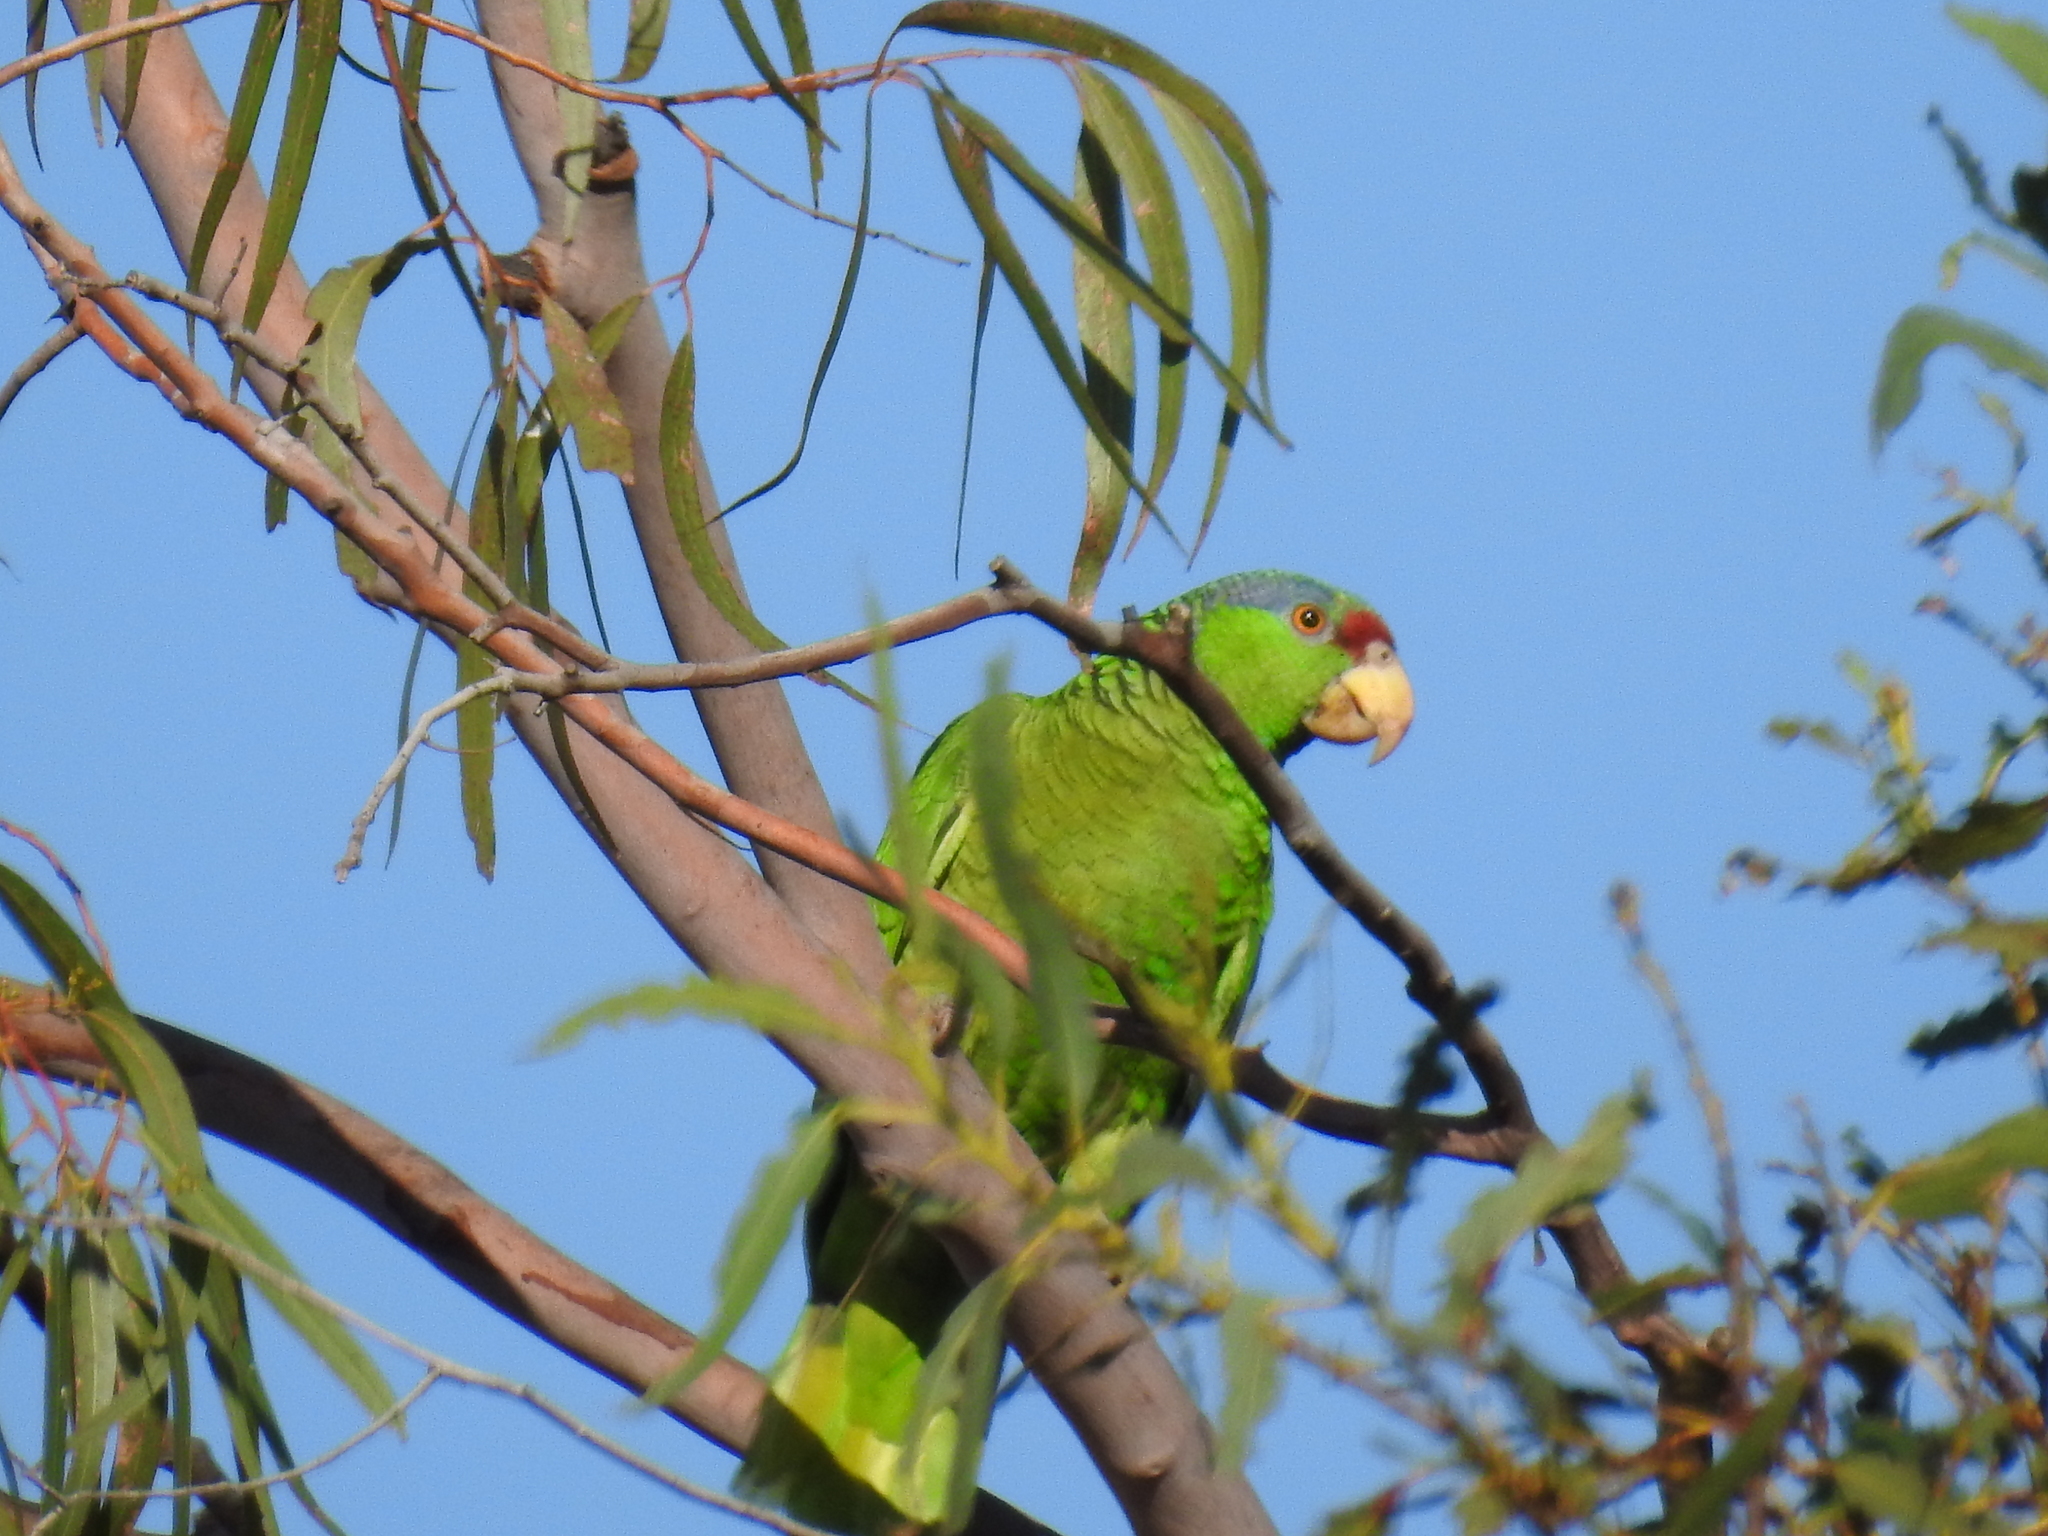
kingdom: Animalia
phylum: Chordata
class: Aves
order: Psittaciformes
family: Psittacidae
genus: Amazona
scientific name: Amazona viridigenalis
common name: Red-crowned amazon
